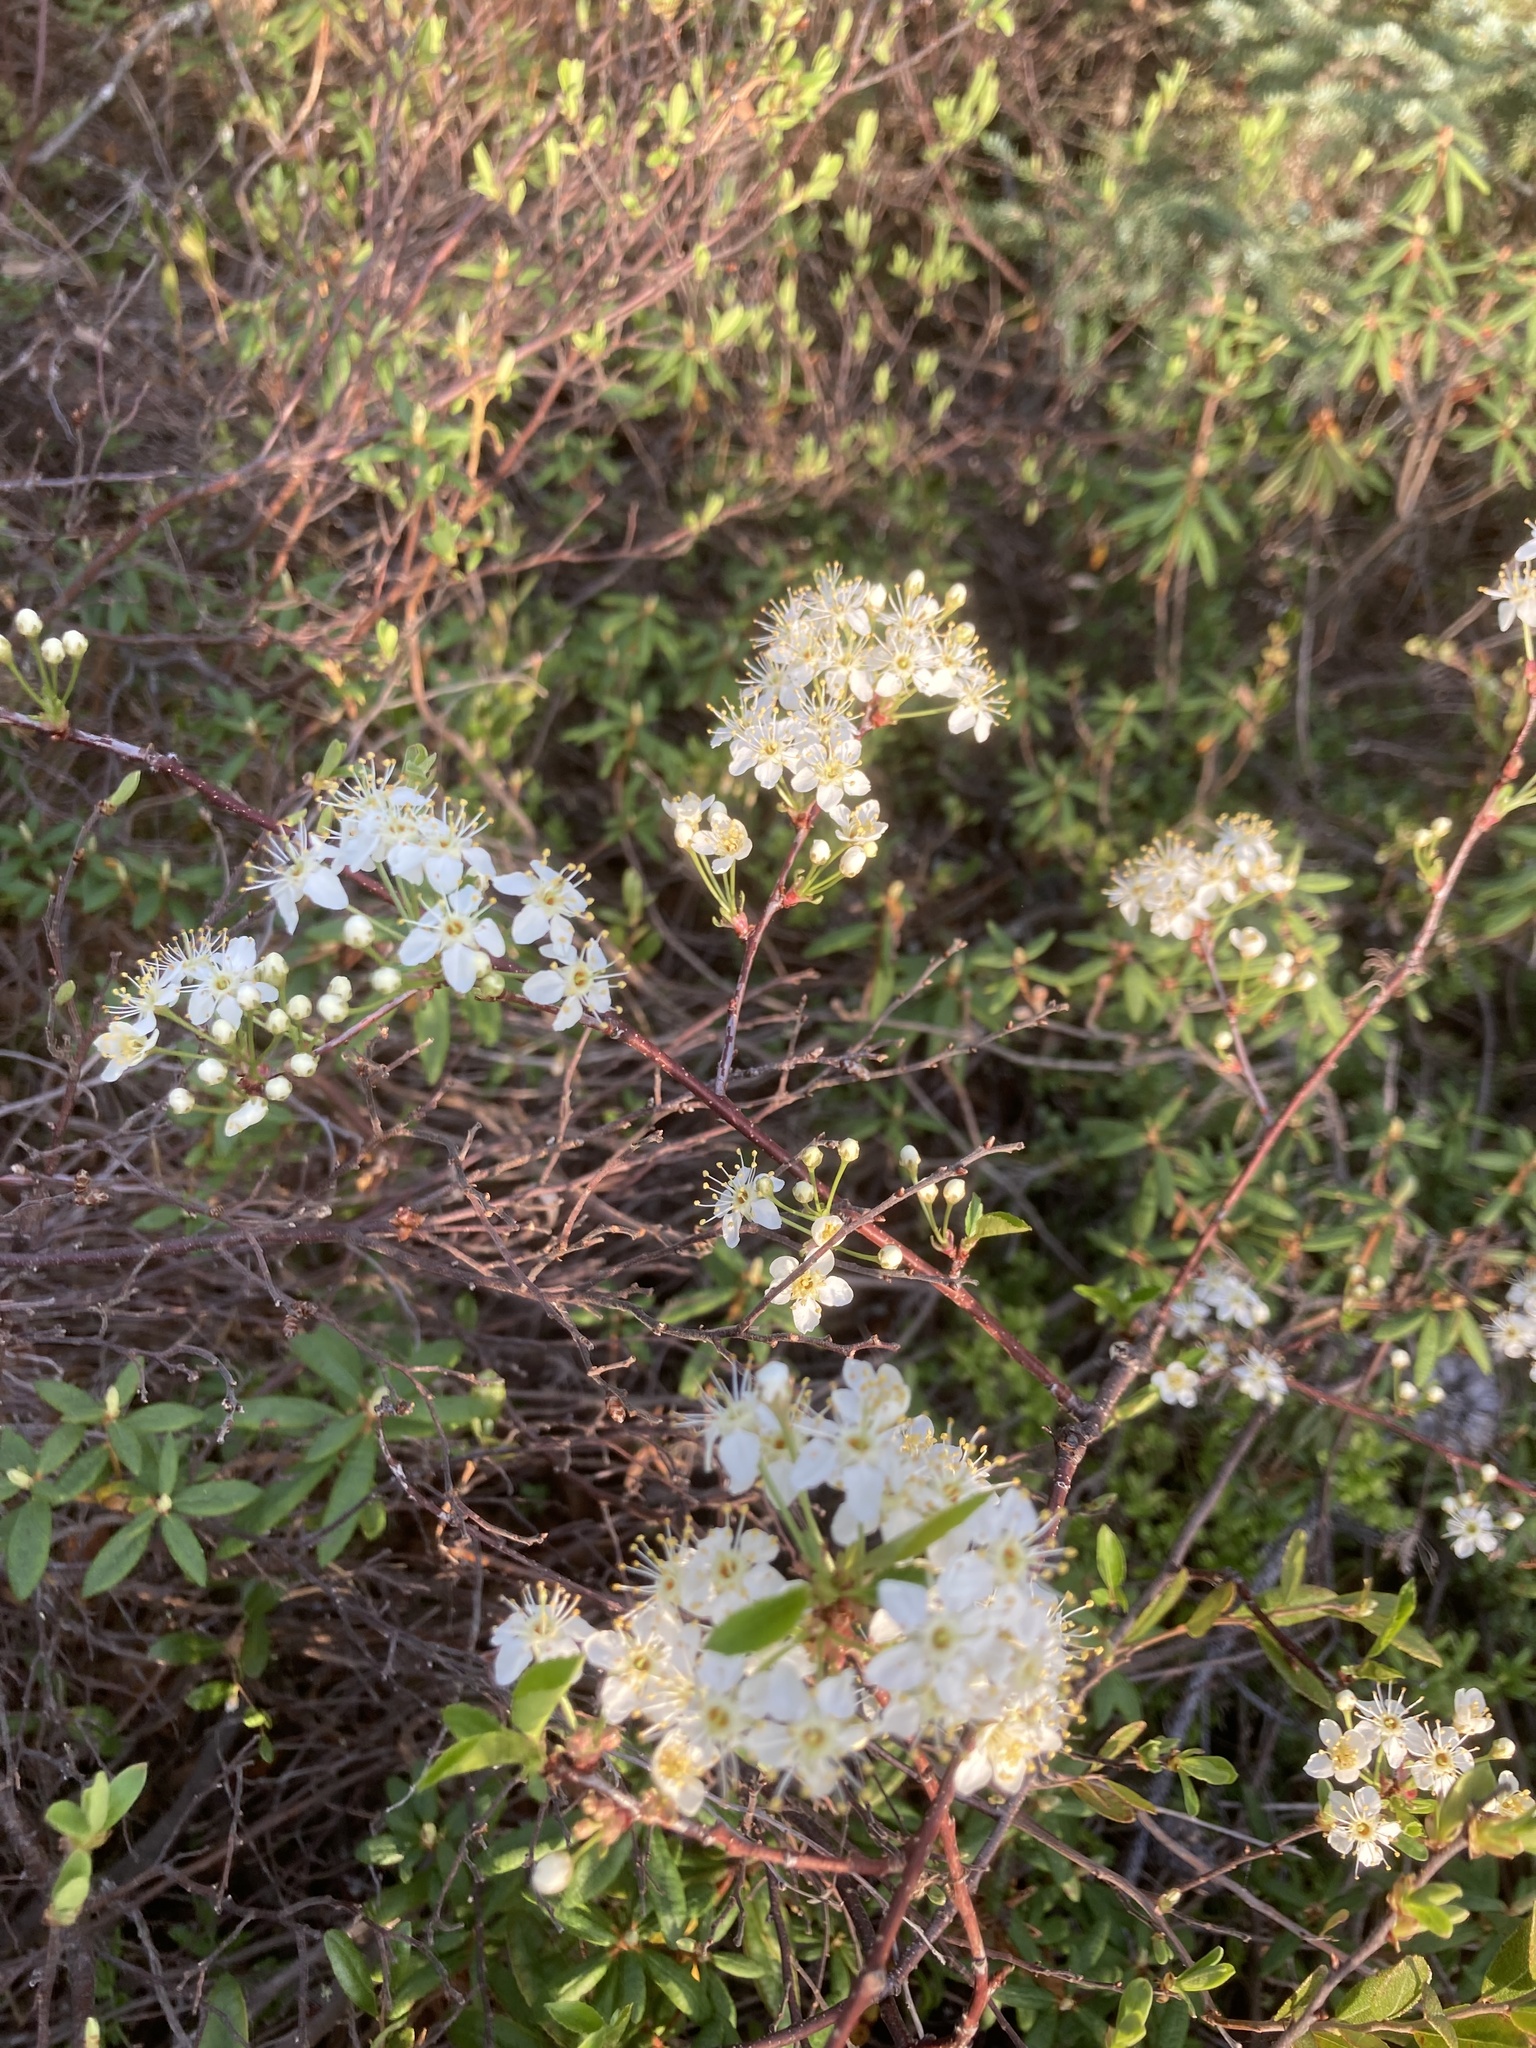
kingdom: Plantae
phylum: Tracheophyta
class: Magnoliopsida
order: Ericales
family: Ericaceae
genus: Rhododendron
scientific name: Rhododendron groenlandicum
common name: Bog labrador tea
